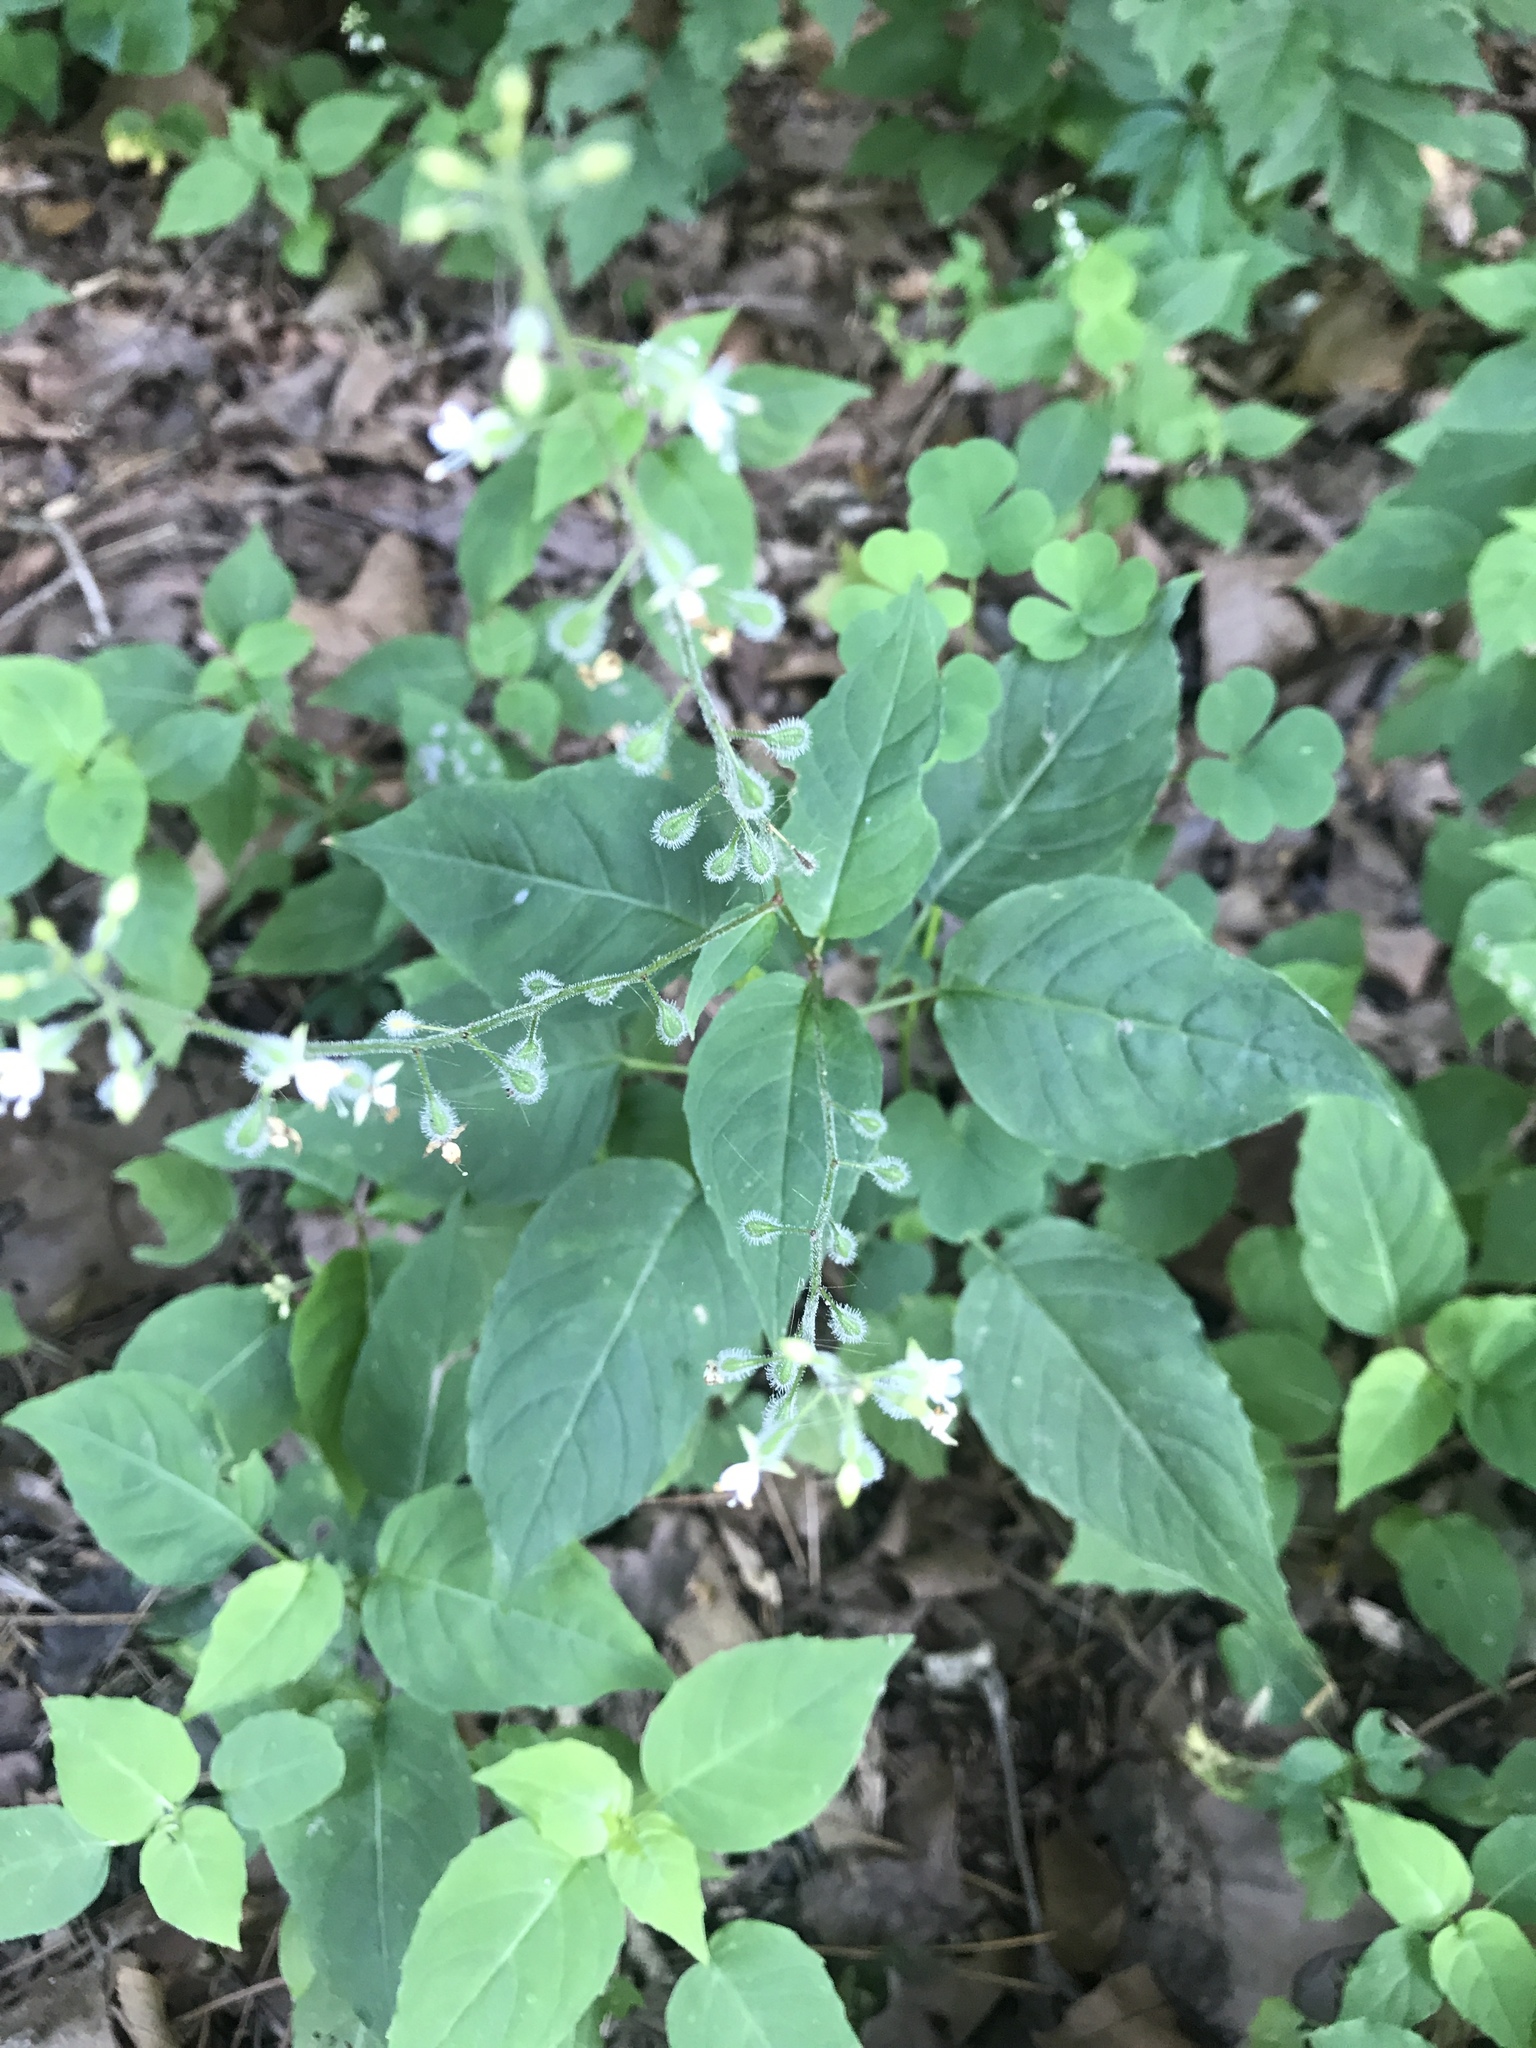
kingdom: Plantae
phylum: Tracheophyta
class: Magnoliopsida
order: Myrtales
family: Onagraceae
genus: Circaea
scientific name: Circaea canadensis
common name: Broad-leaved enchanter's nightshade
